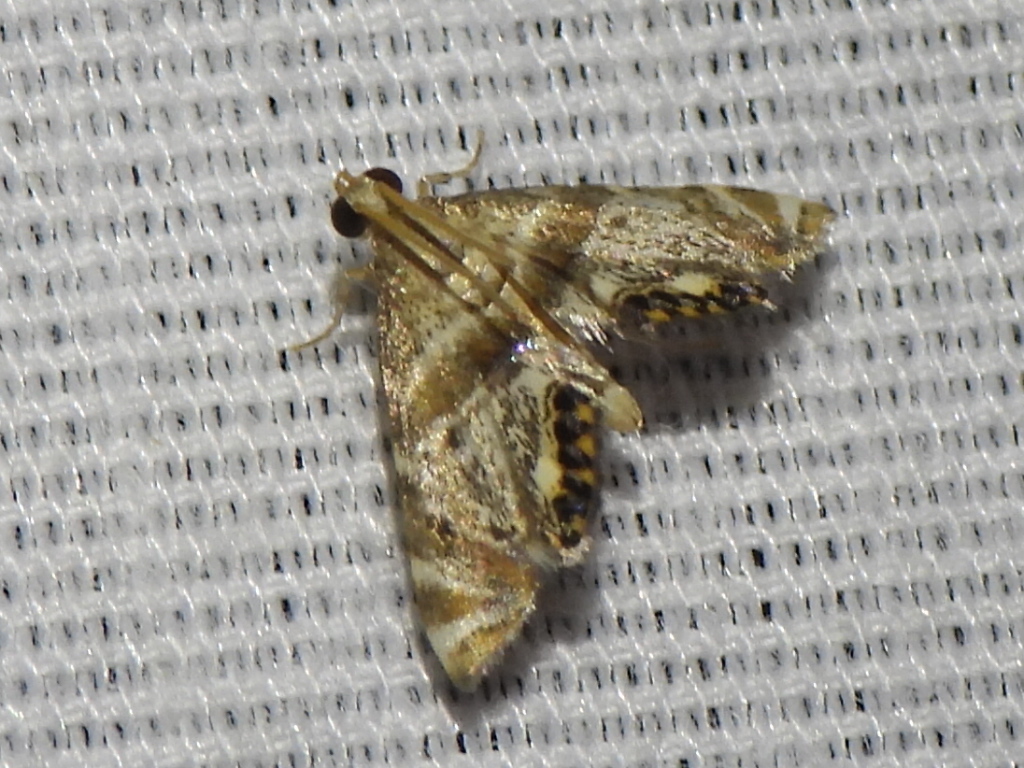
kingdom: Animalia
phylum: Arthropoda
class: Insecta
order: Lepidoptera
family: Crambidae
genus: Petrophila
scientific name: Petrophila fulicalis
